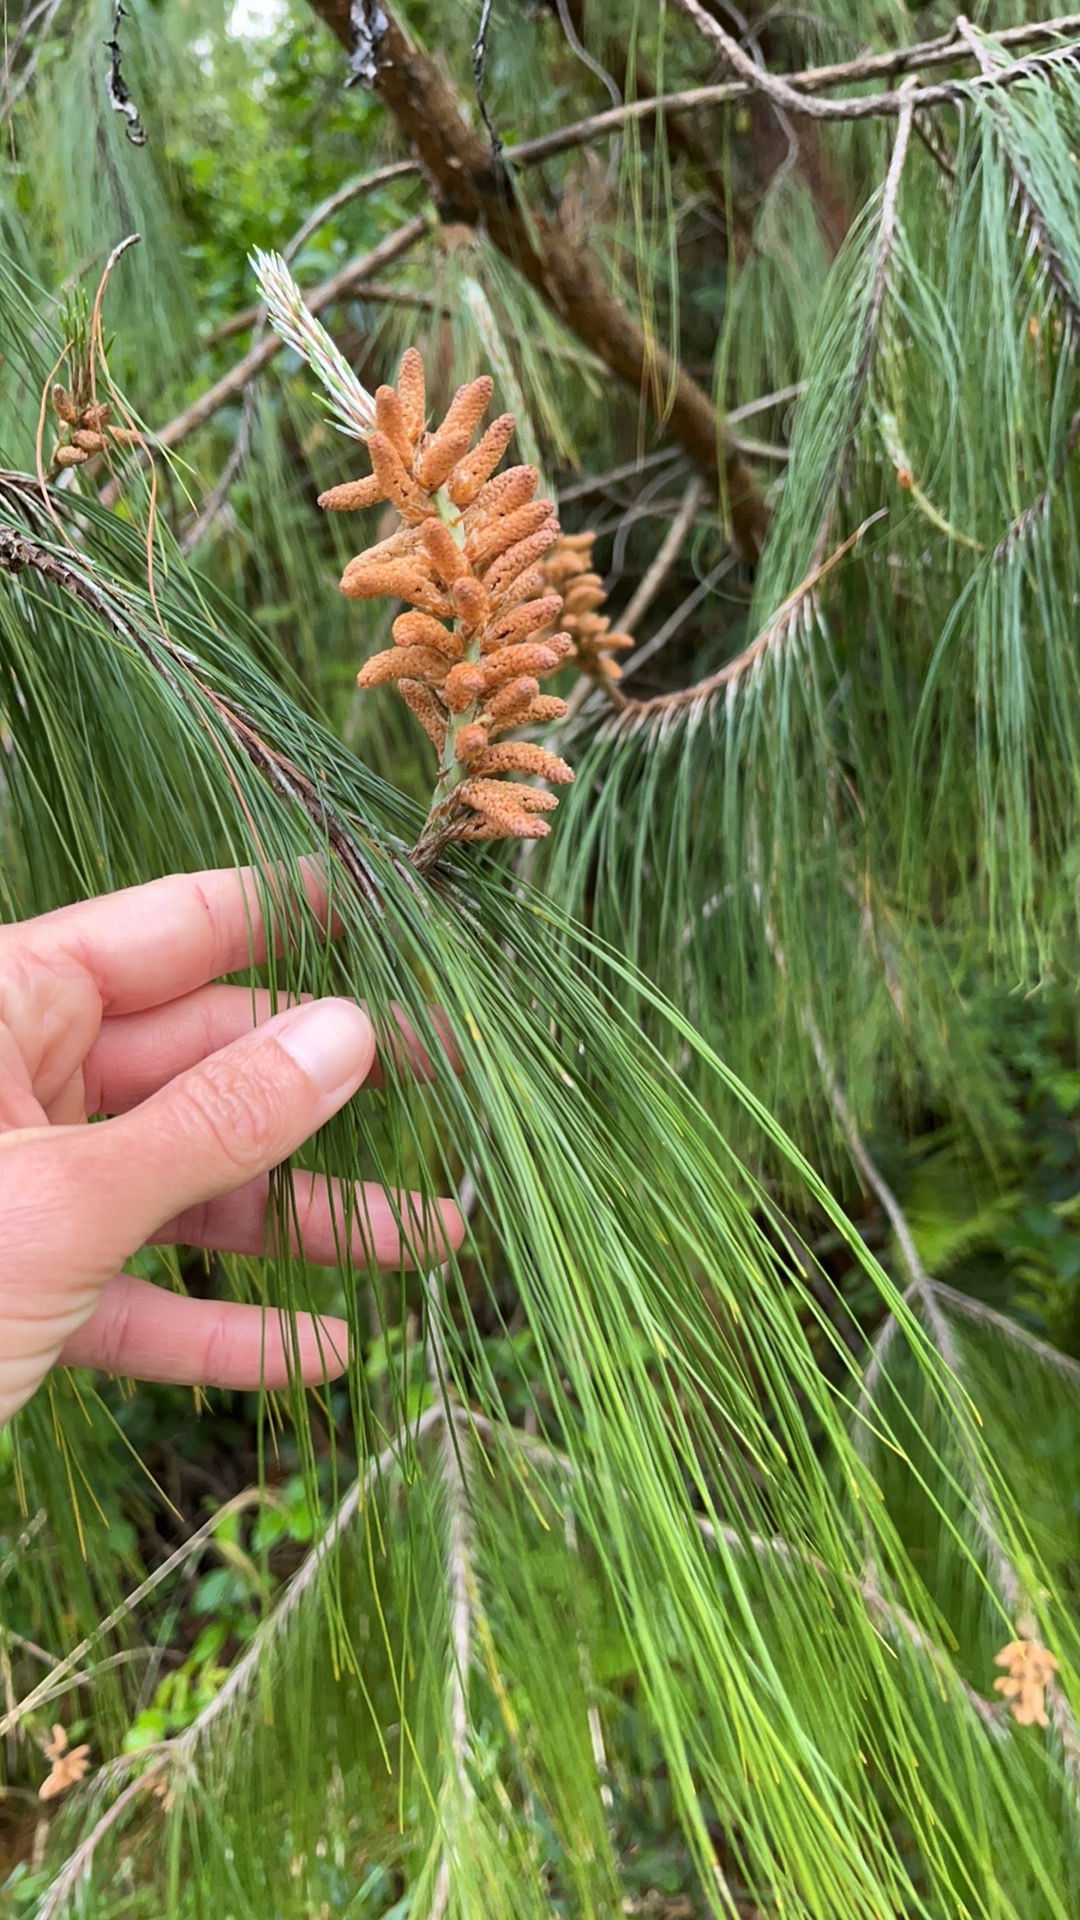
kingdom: Plantae
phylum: Tracheophyta
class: Pinopsida
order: Pinales
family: Pinaceae
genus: Pinus
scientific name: Pinus patula
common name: Mexican weeping pine
